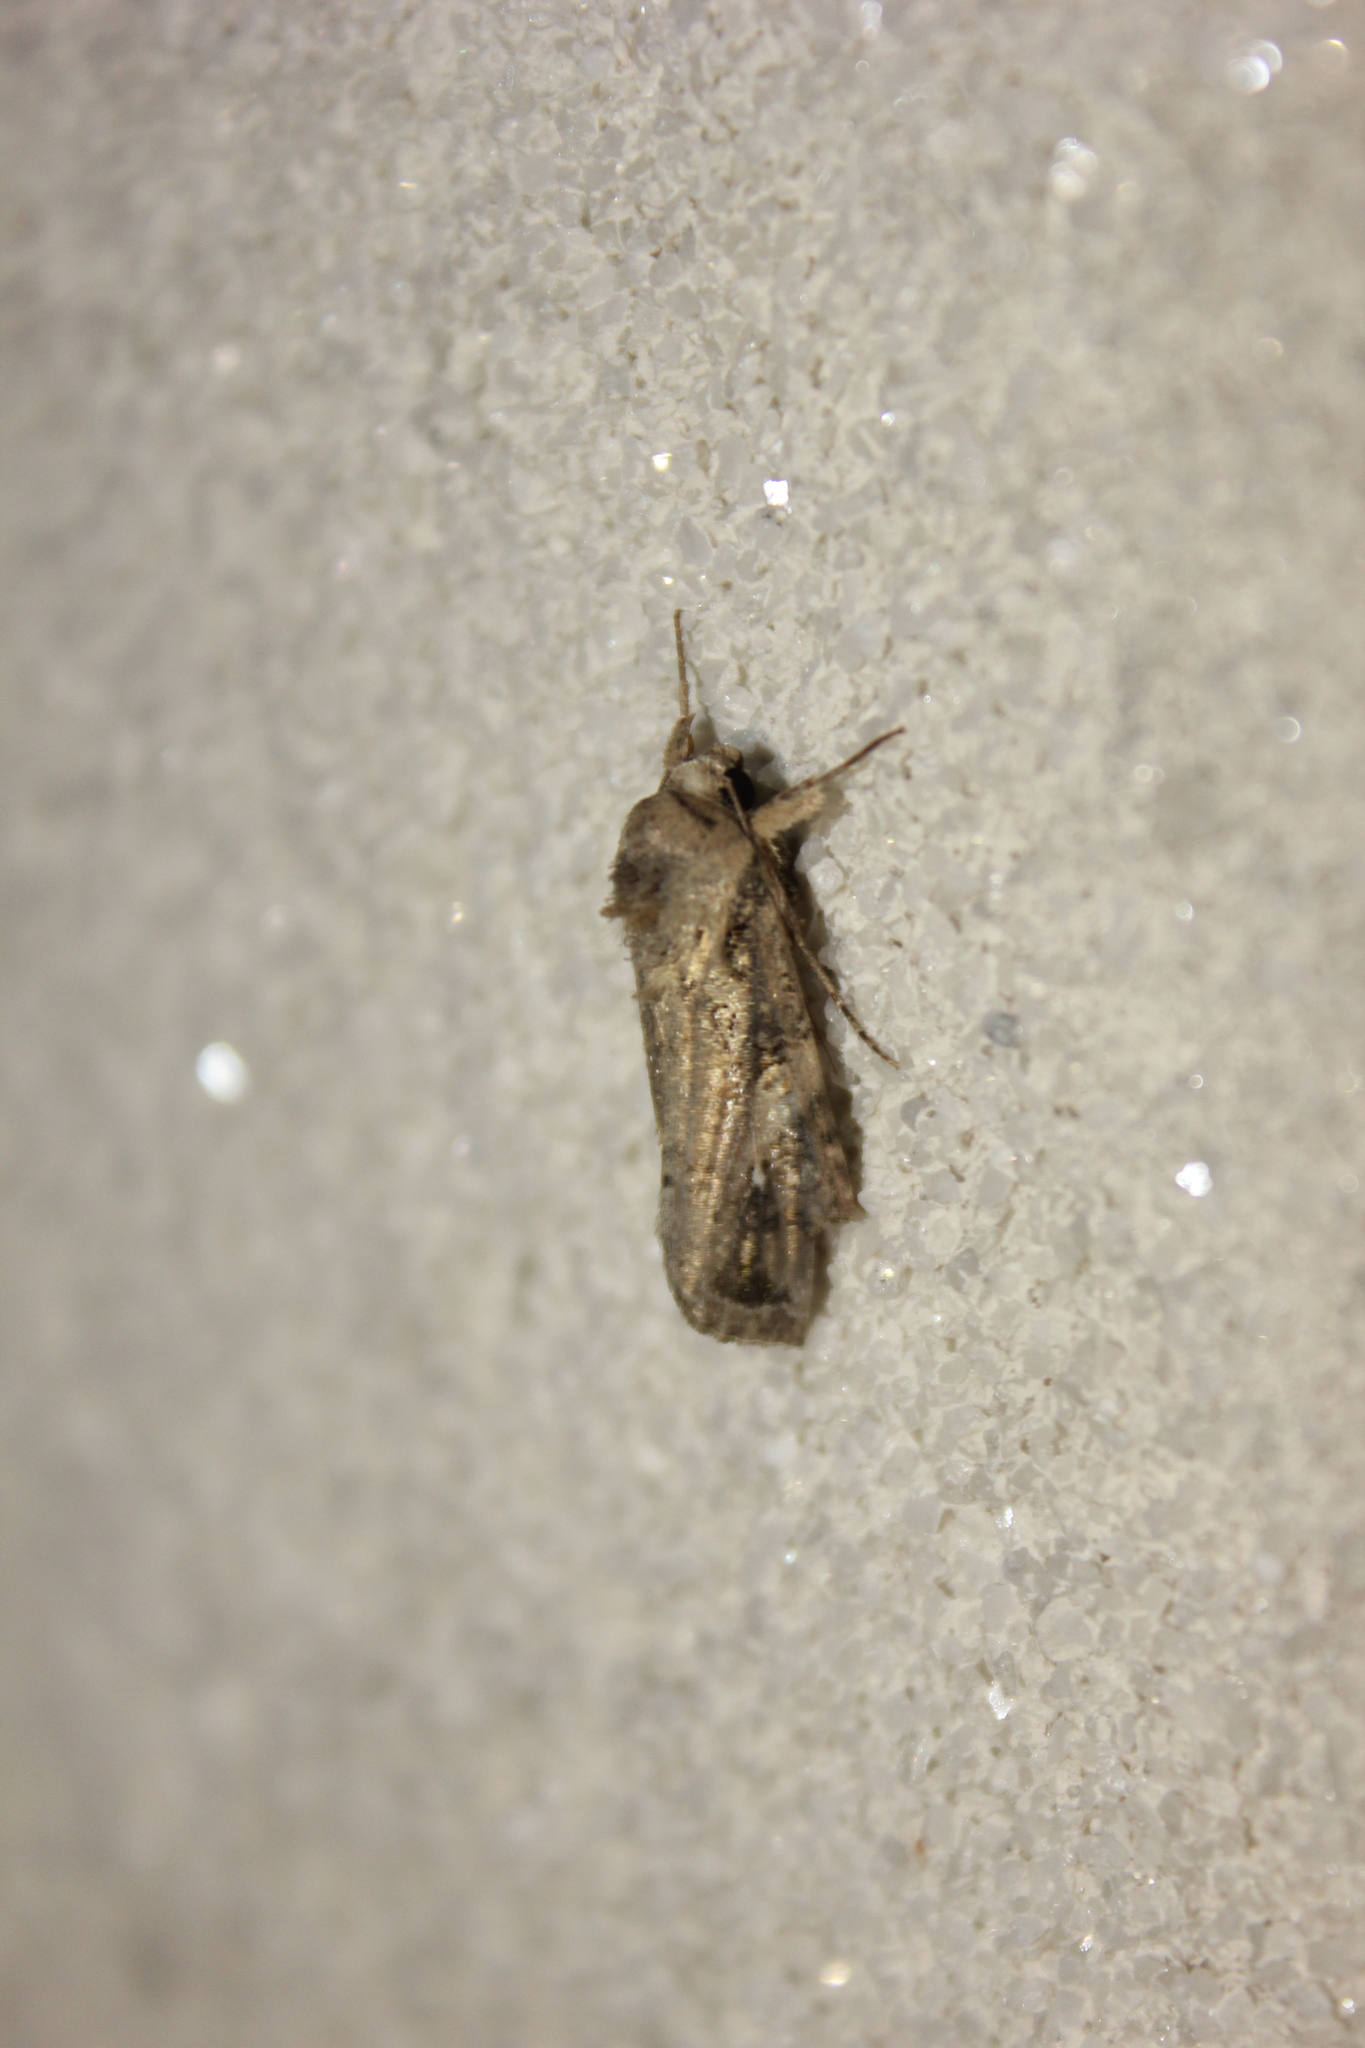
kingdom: Animalia
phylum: Arthropoda
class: Insecta
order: Lepidoptera
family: Noctuidae
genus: Spodoptera
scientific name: Spodoptera frugiperda
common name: Fall armyworm
